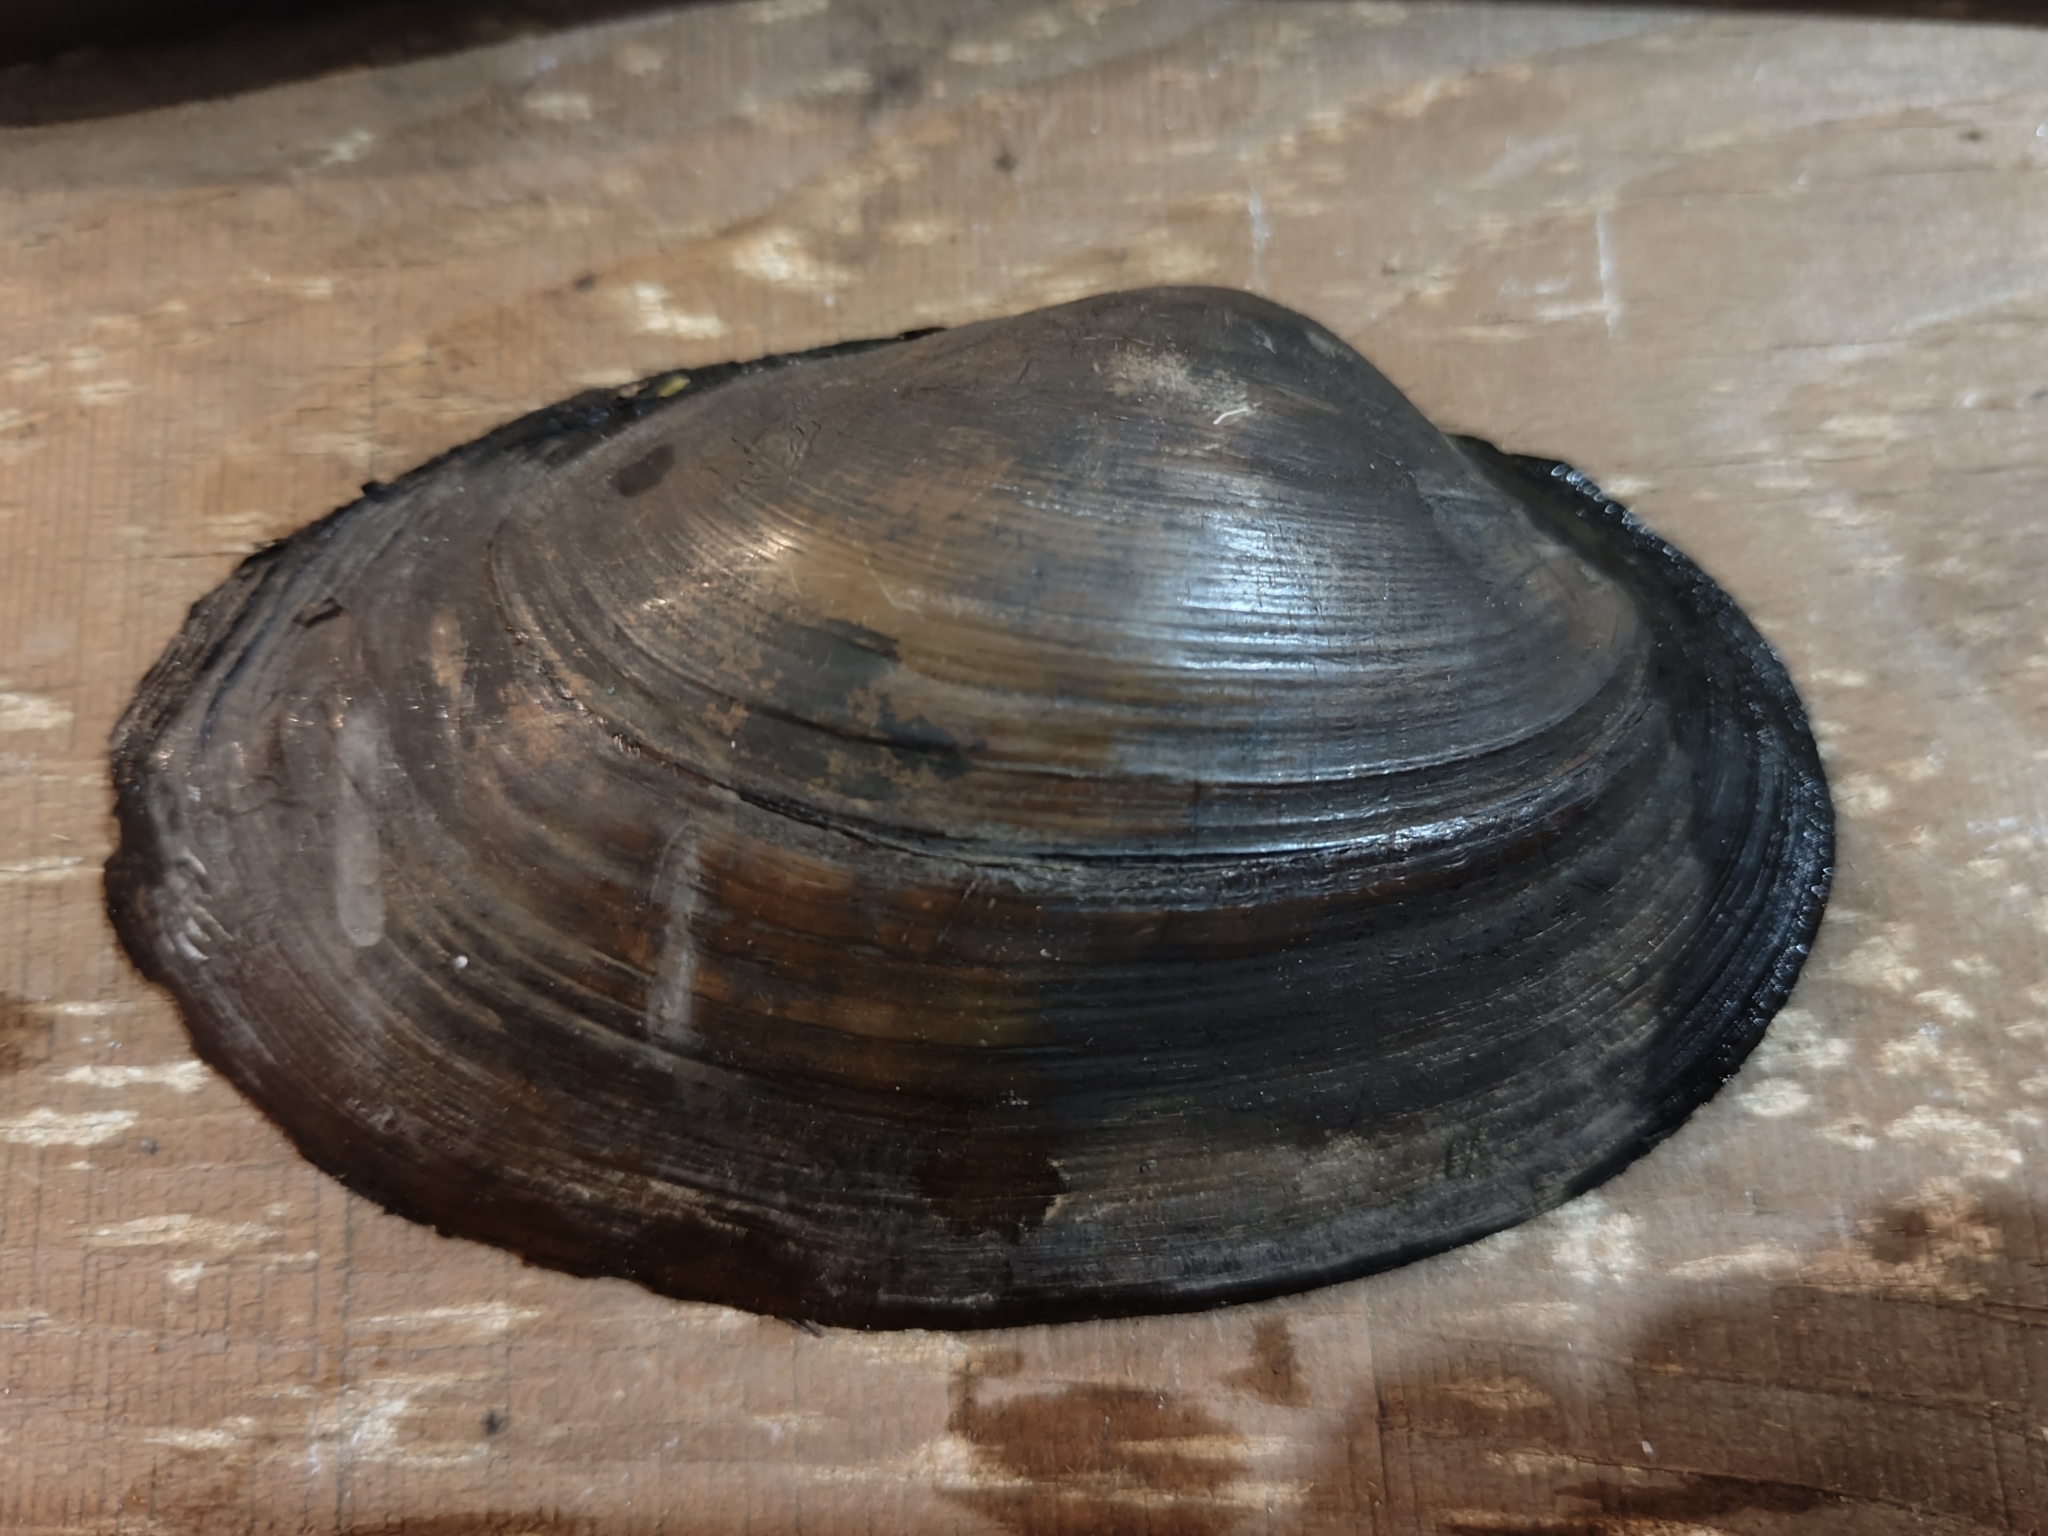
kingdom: Animalia
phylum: Mollusca
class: Bivalvia
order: Unionida
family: Unionidae
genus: Pyganodon
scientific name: Pyganodon grandis
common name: Giant floater
